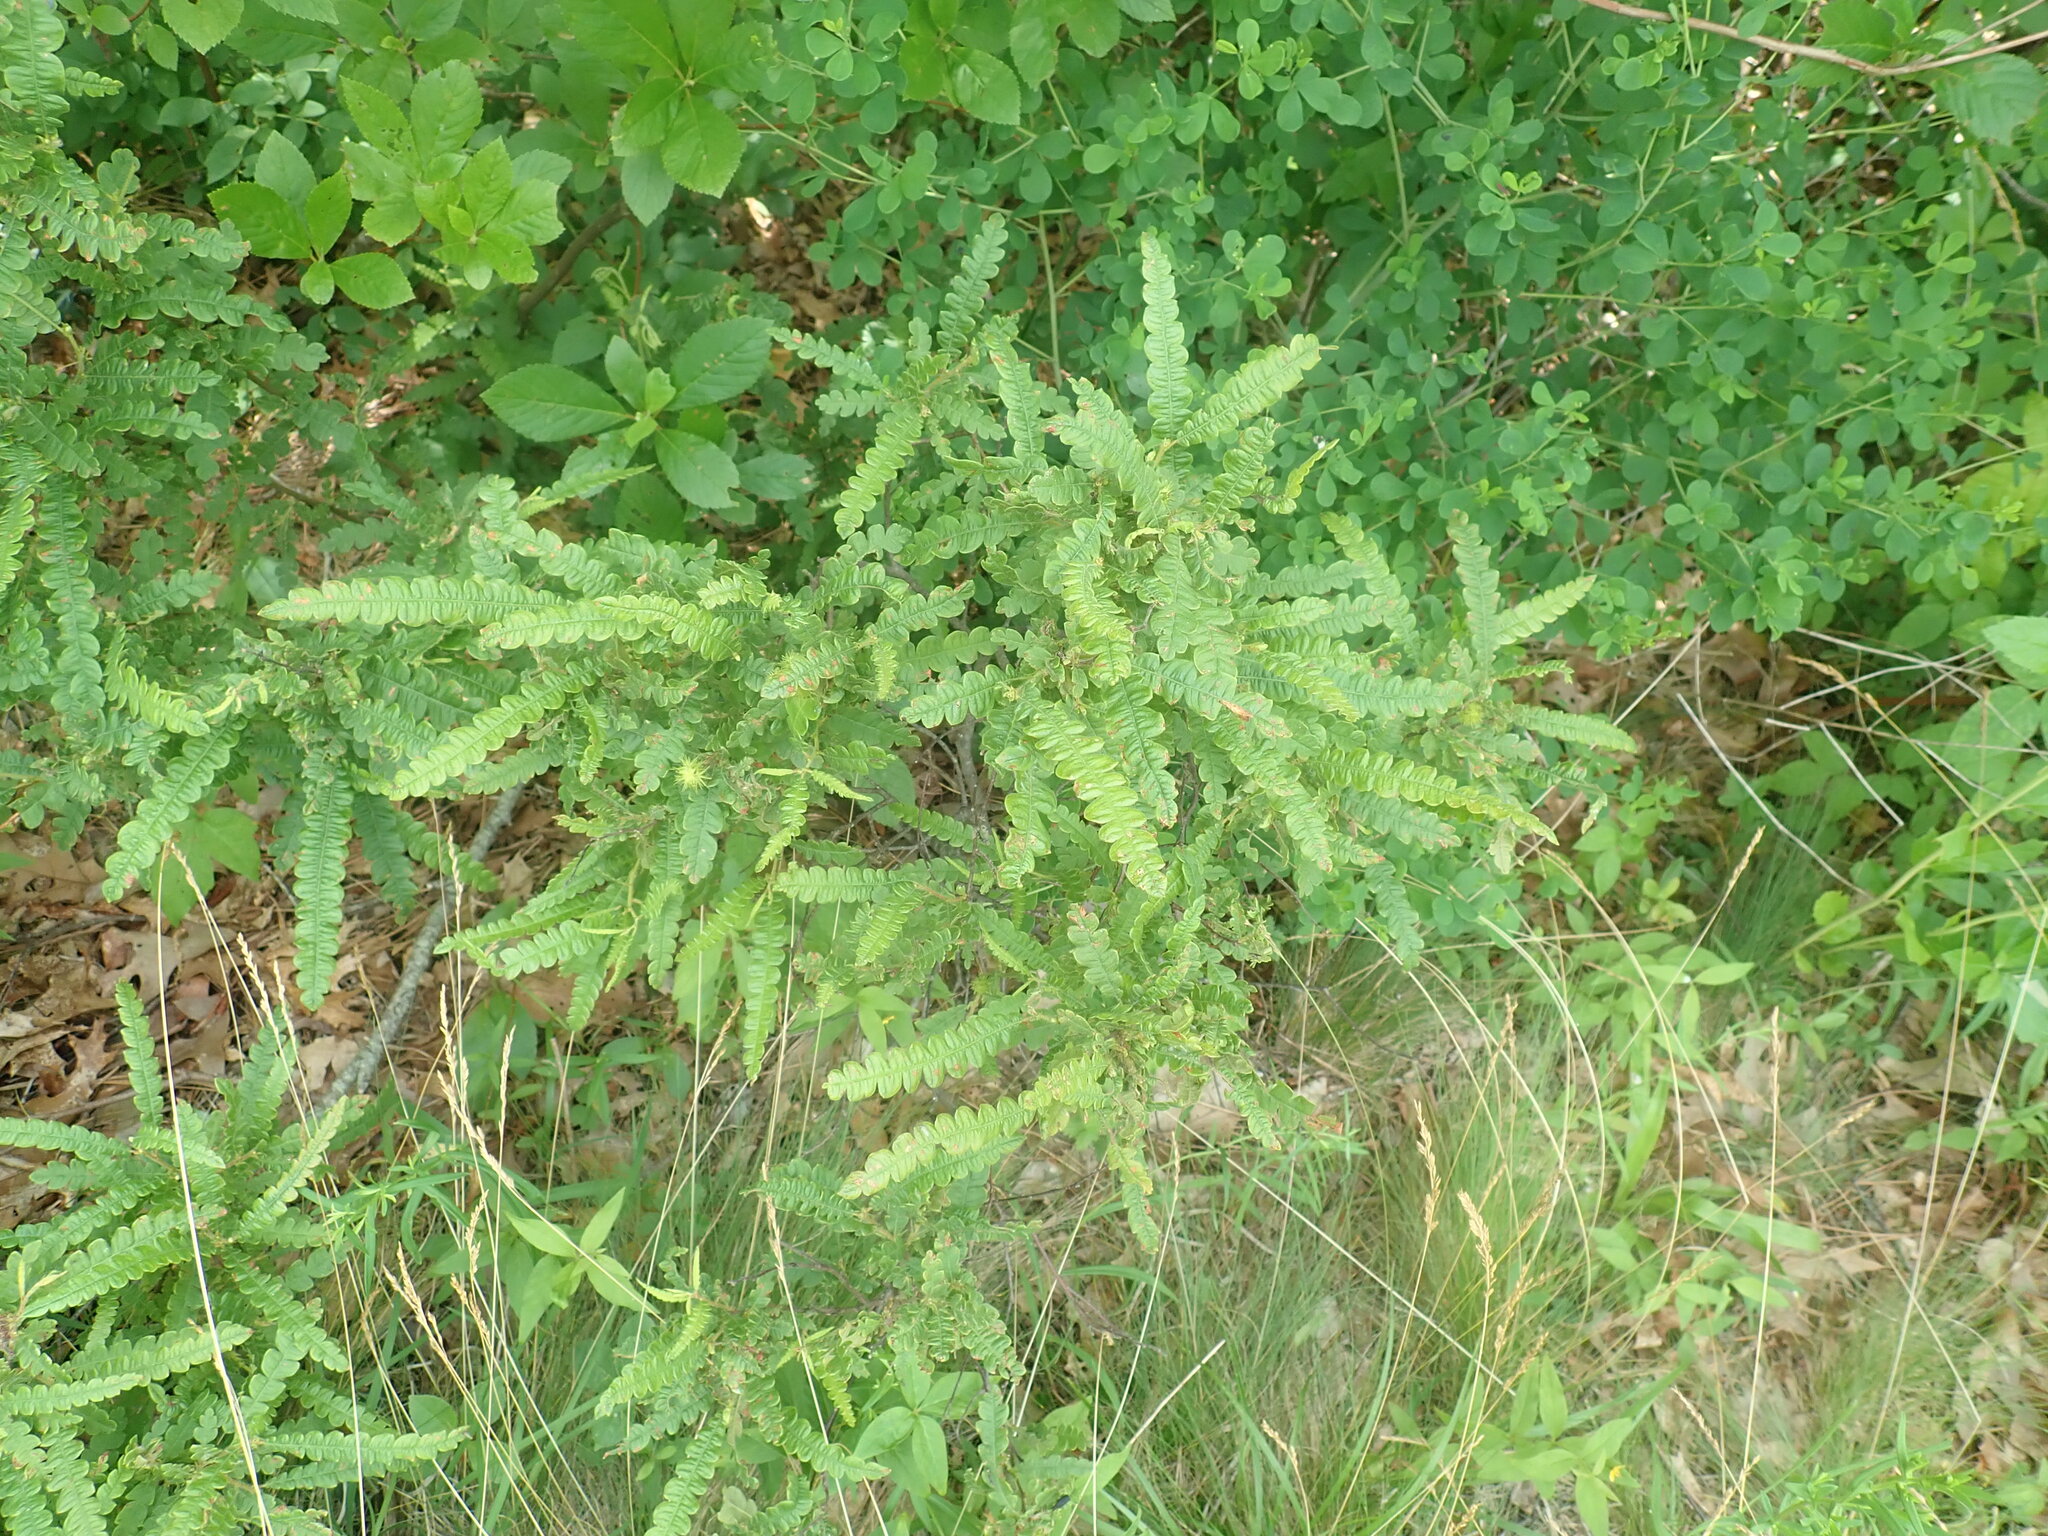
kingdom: Plantae
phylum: Tracheophyta
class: Magnoliopsida
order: Fagales
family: Myricaceae
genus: Comptonia
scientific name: Comptonia peregrina
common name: Sweet-fern
